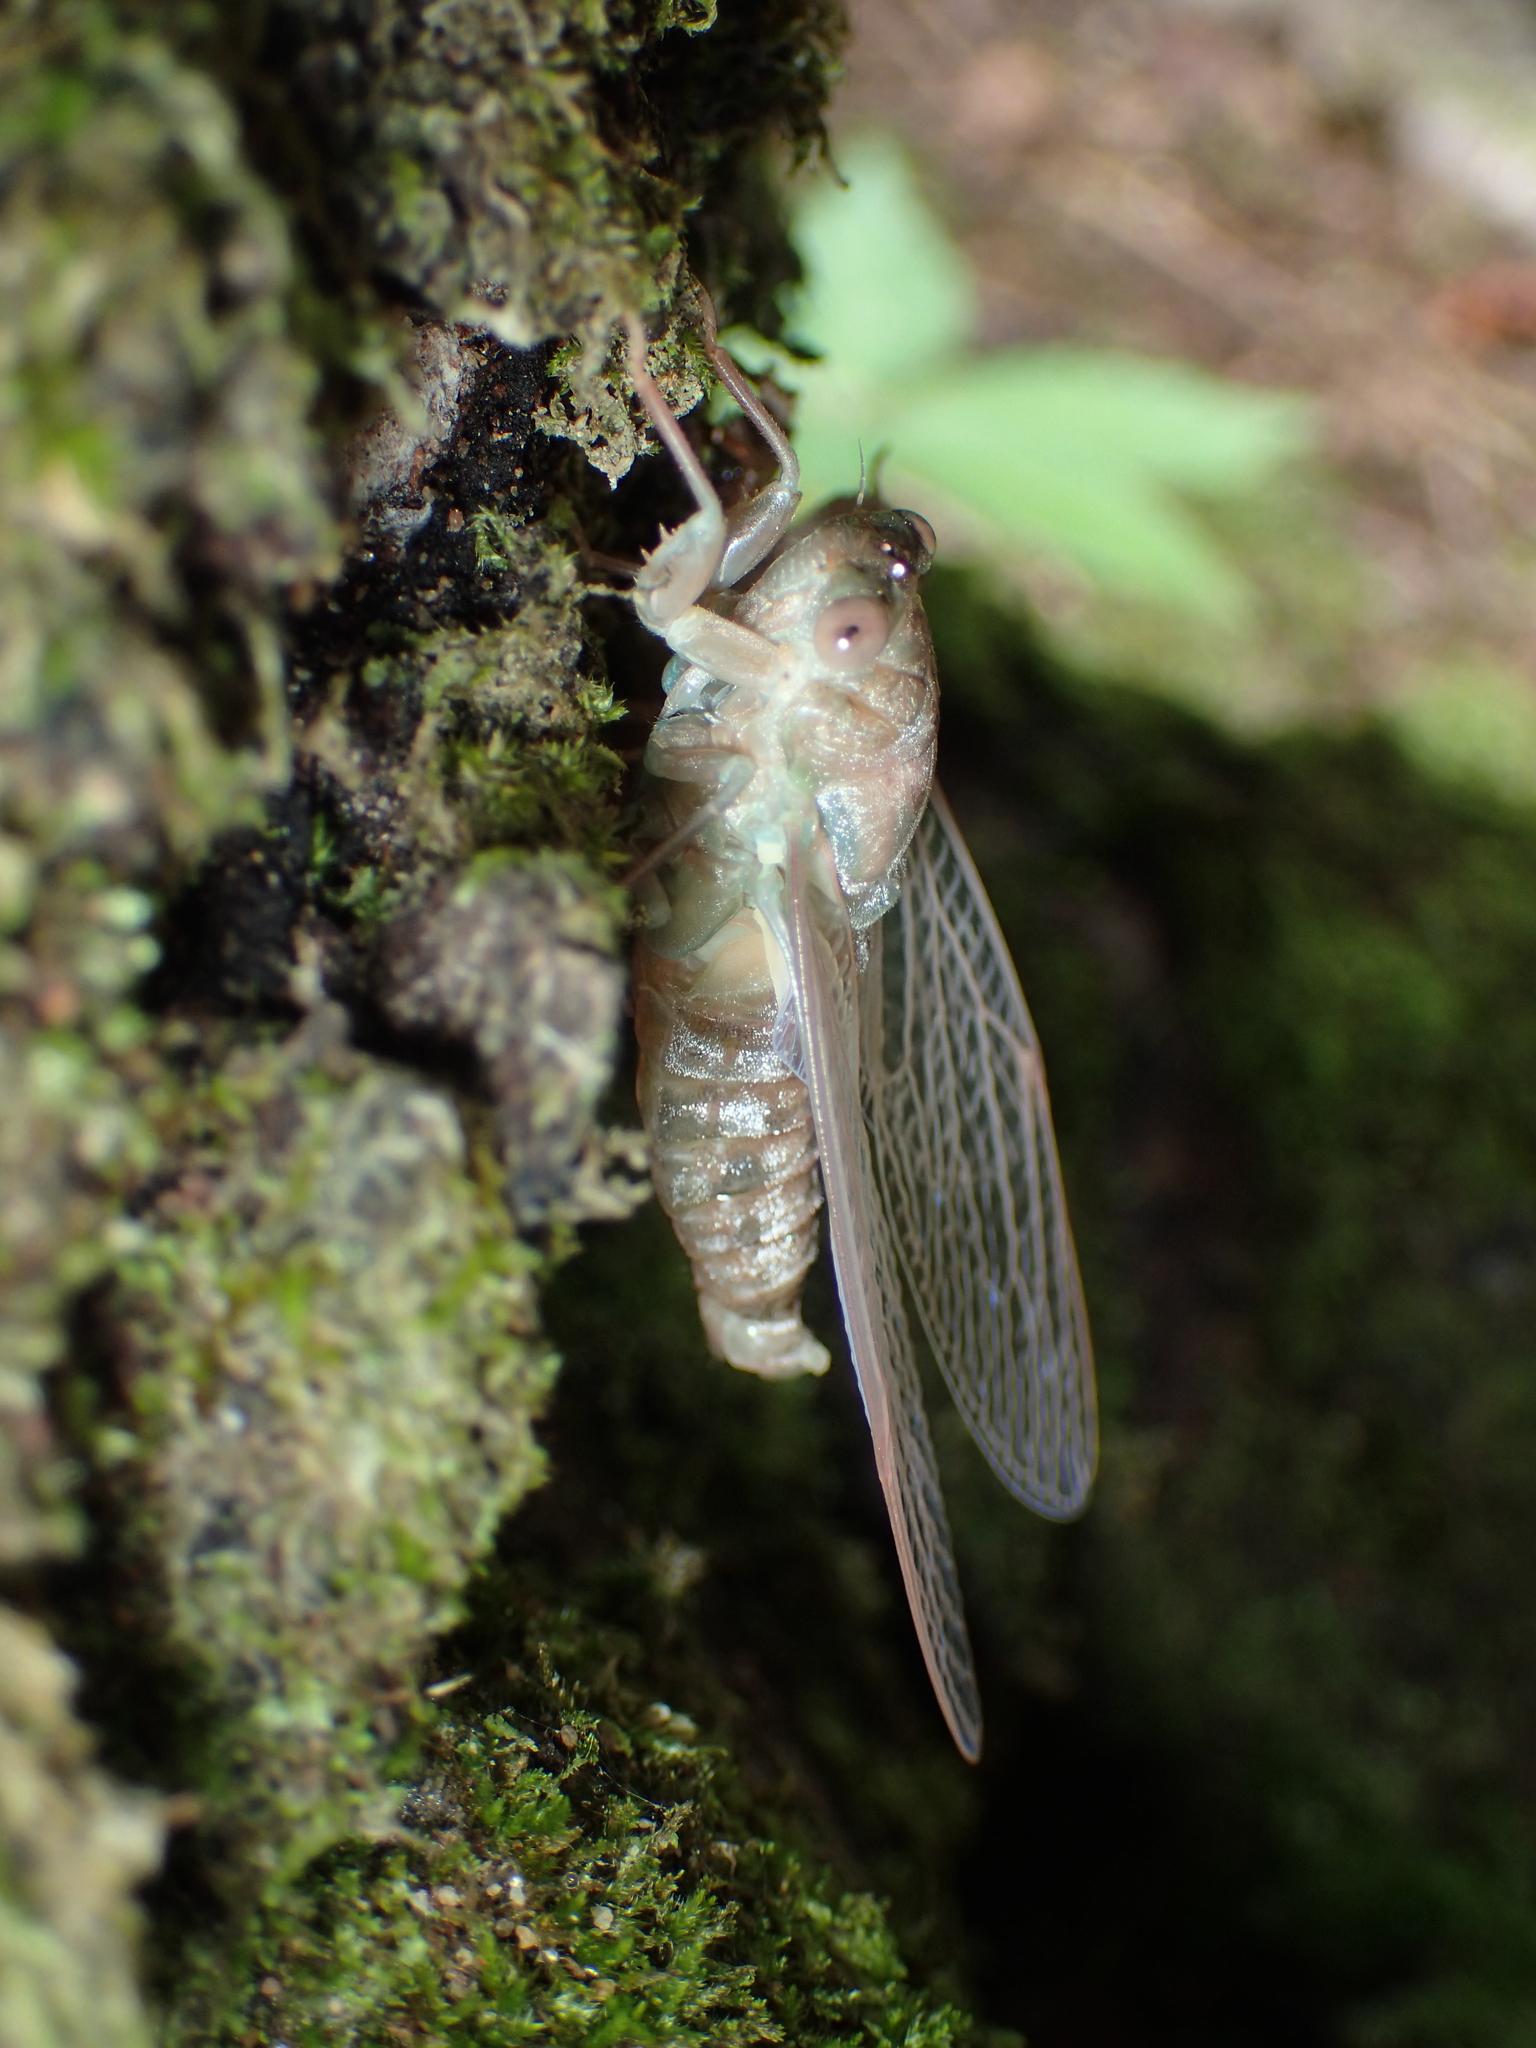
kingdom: Animalia
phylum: Arthropoda
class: Insecta
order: Hemiptera
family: Cicadidae
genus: Neocicada
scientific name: Neocicada hieroglyphica
